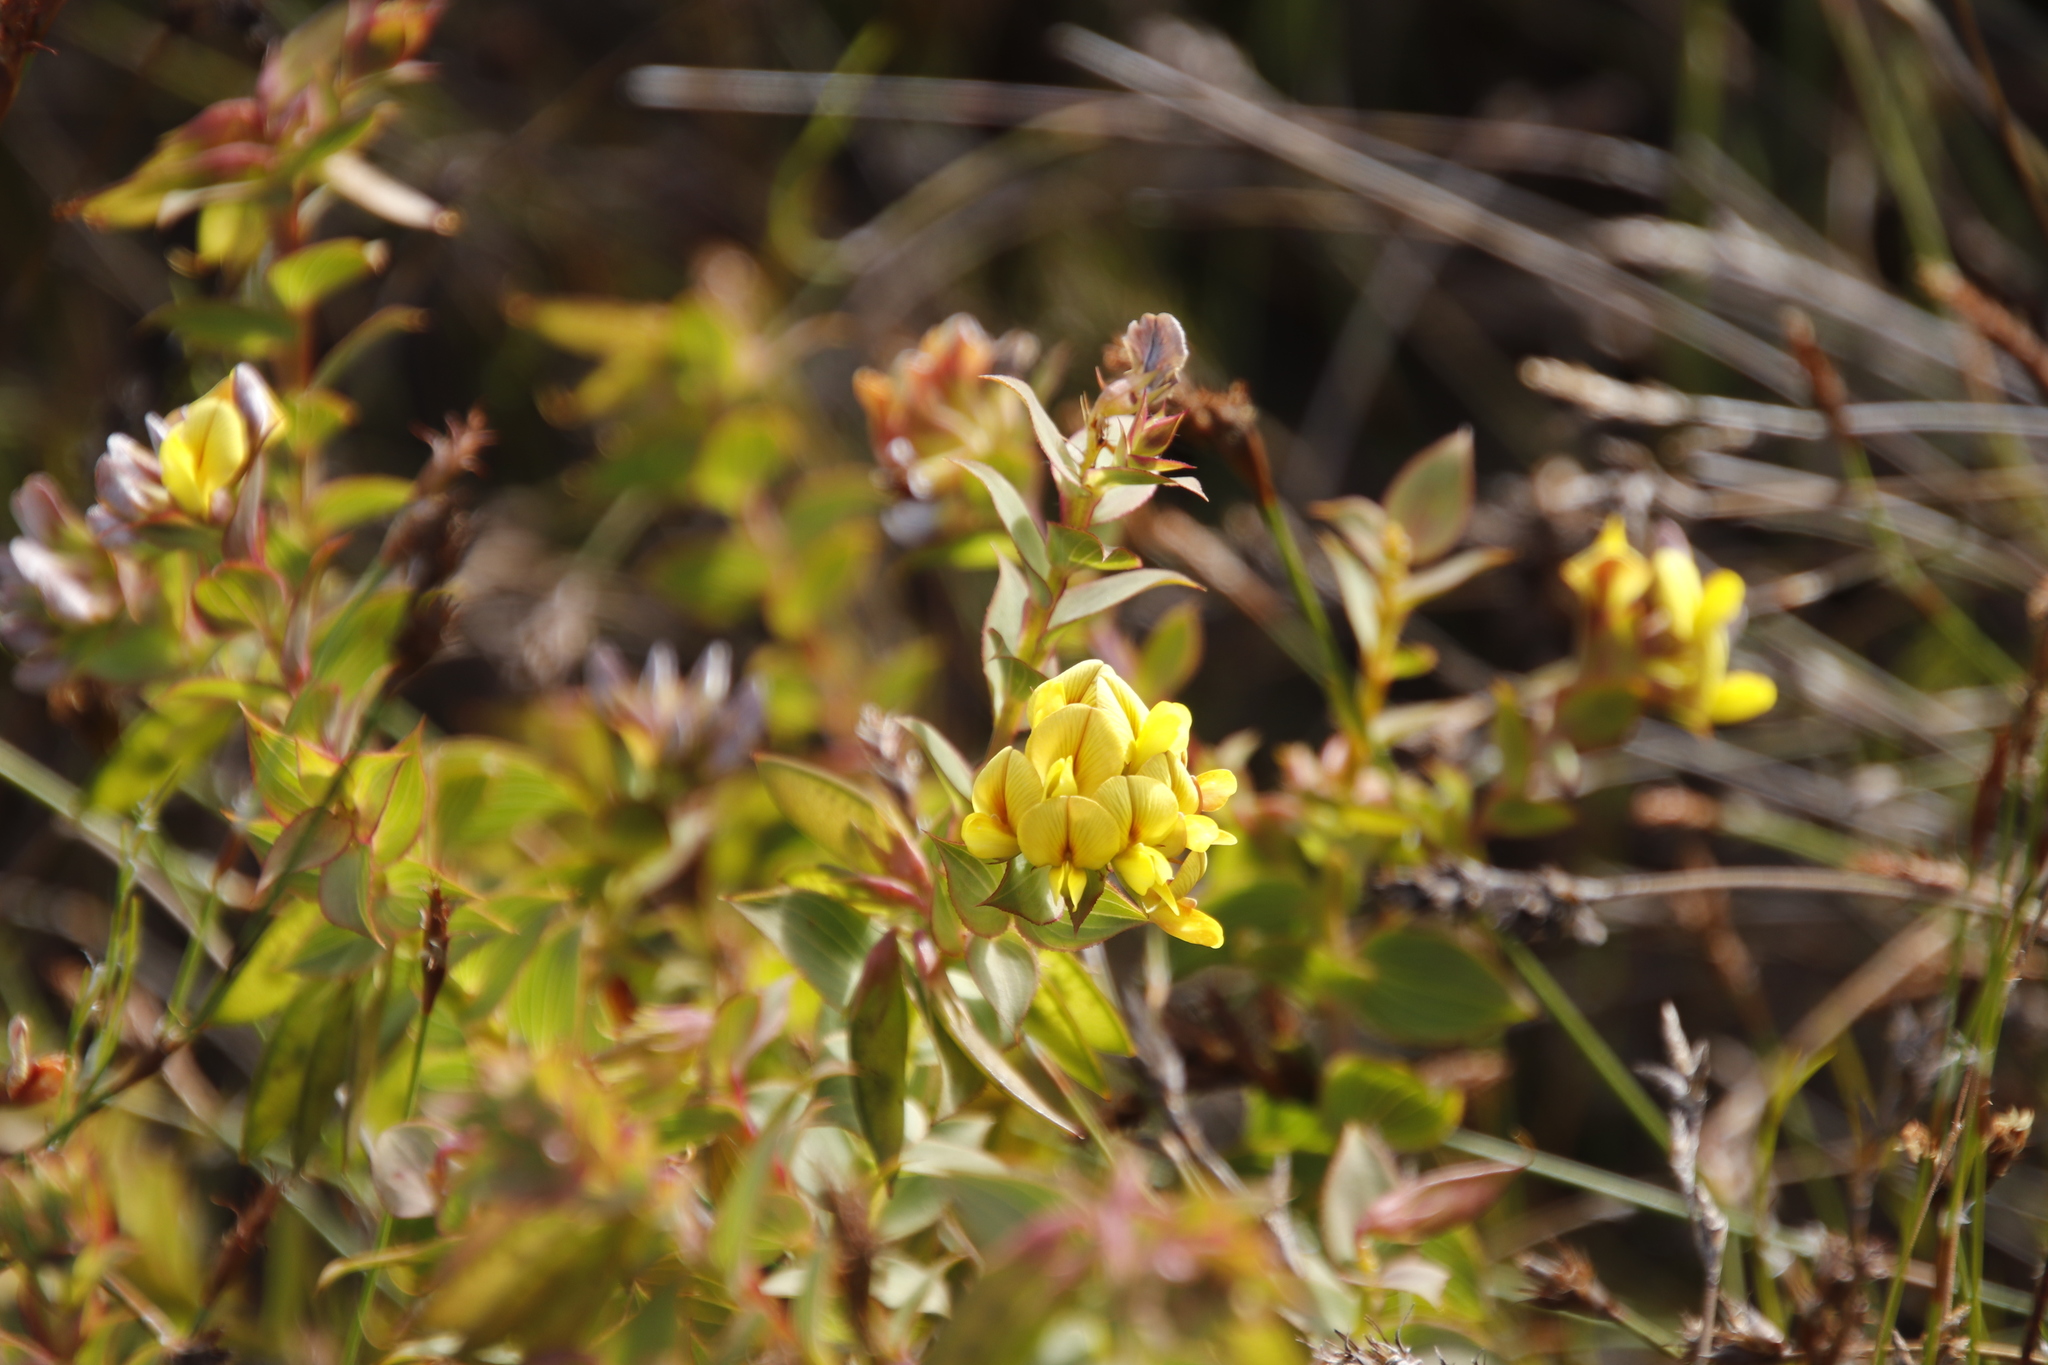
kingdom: Plantae
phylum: Tracheophyta
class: Magnoliopsida
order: Fabales
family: Fabaceae
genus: Aspalathus
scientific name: Aspalathus crenata
